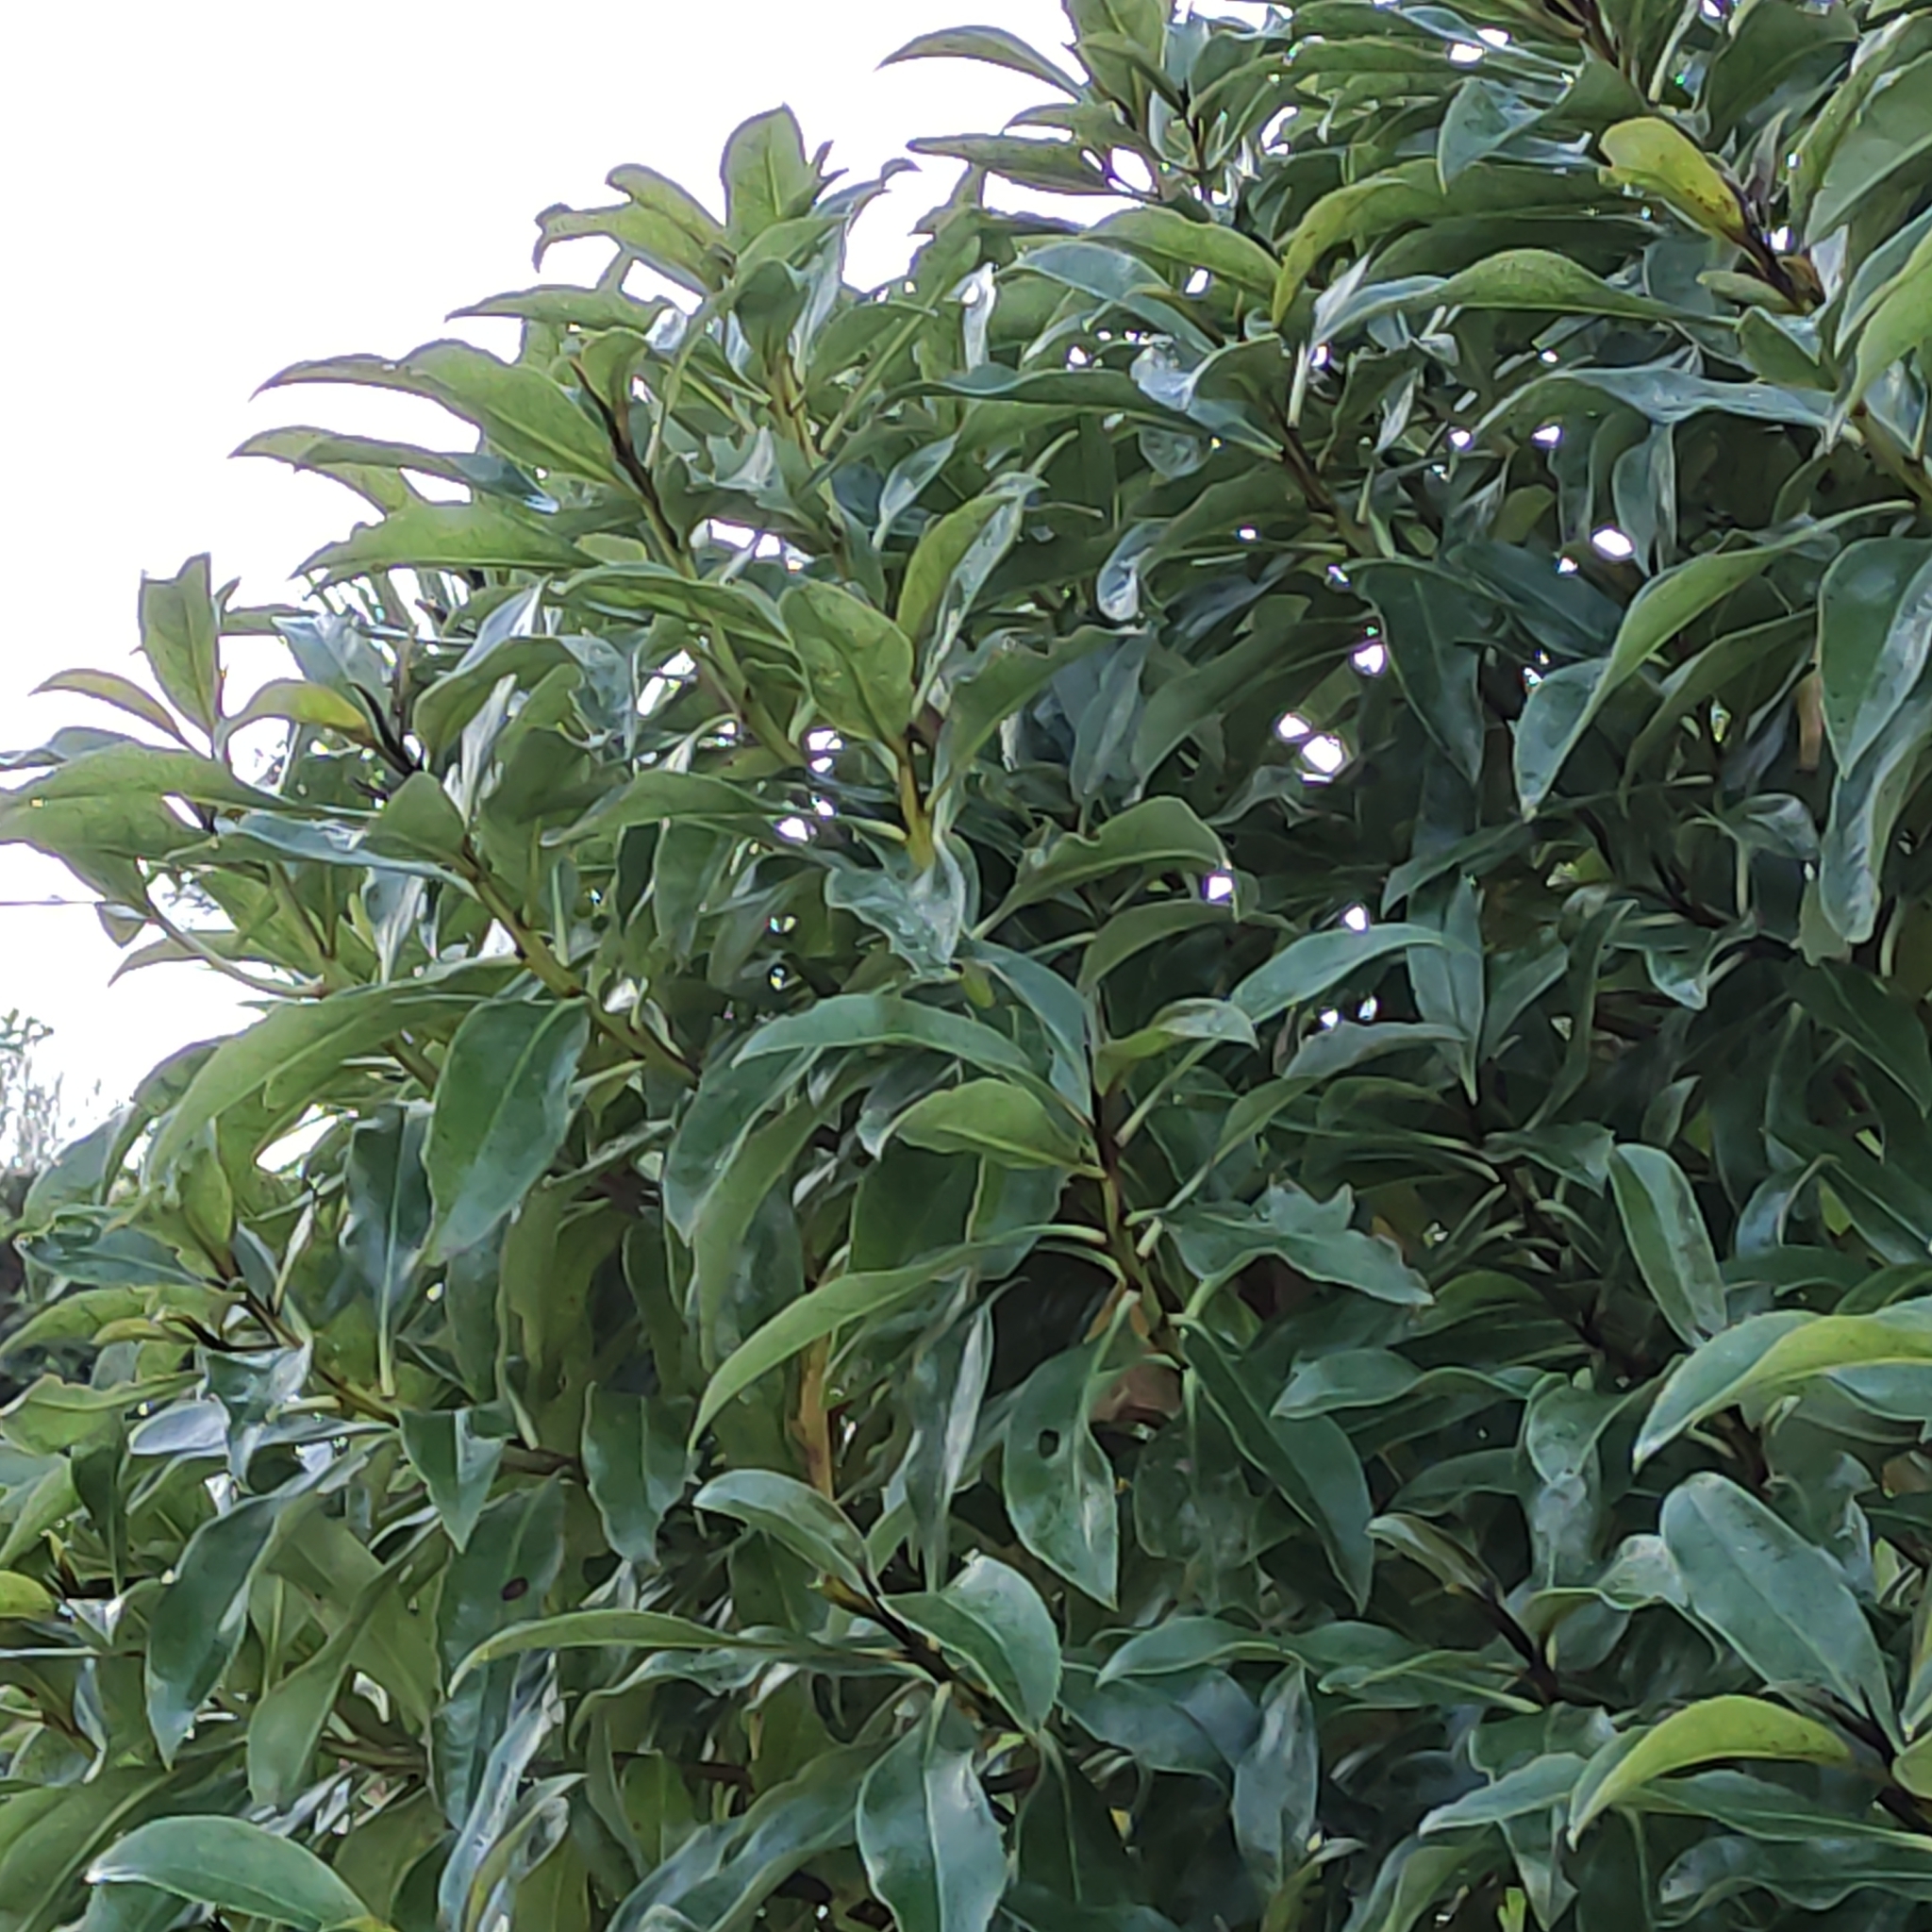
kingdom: Plantae
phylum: Tracheophyta
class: Magnoliopsida
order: Lamiales
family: Scrophulariaceae
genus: Myoporum
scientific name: Myoporum laetum
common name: Ngaio tree
